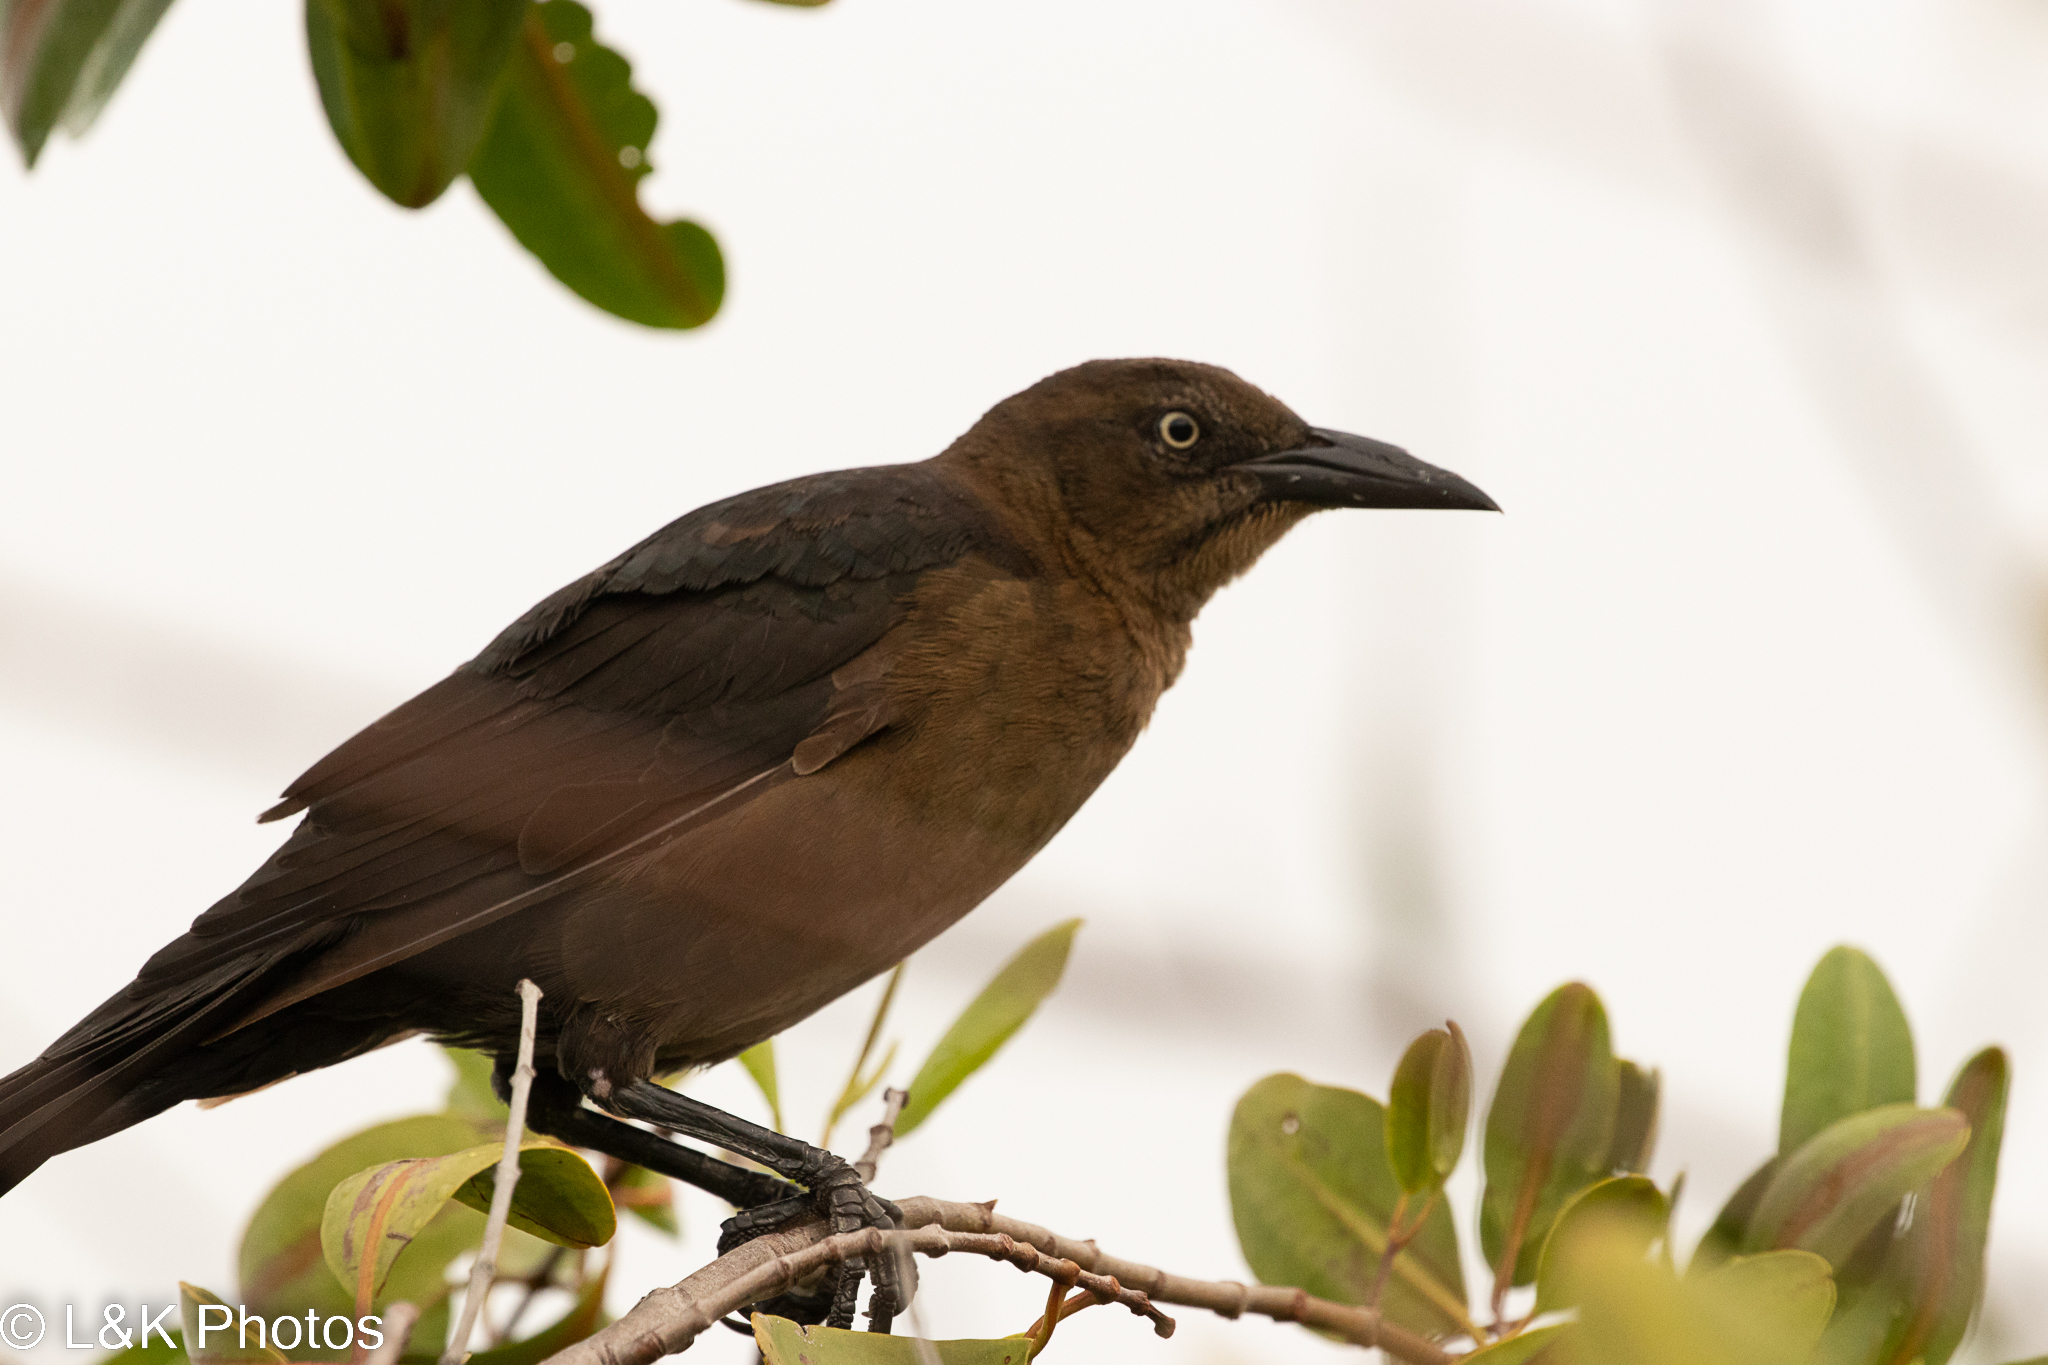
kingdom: Animalia
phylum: Chordata
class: Aves
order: Passeriformes
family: Icteridae
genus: Quiscalus
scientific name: Quiscalus mexicanus
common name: Great-tailed grackle
